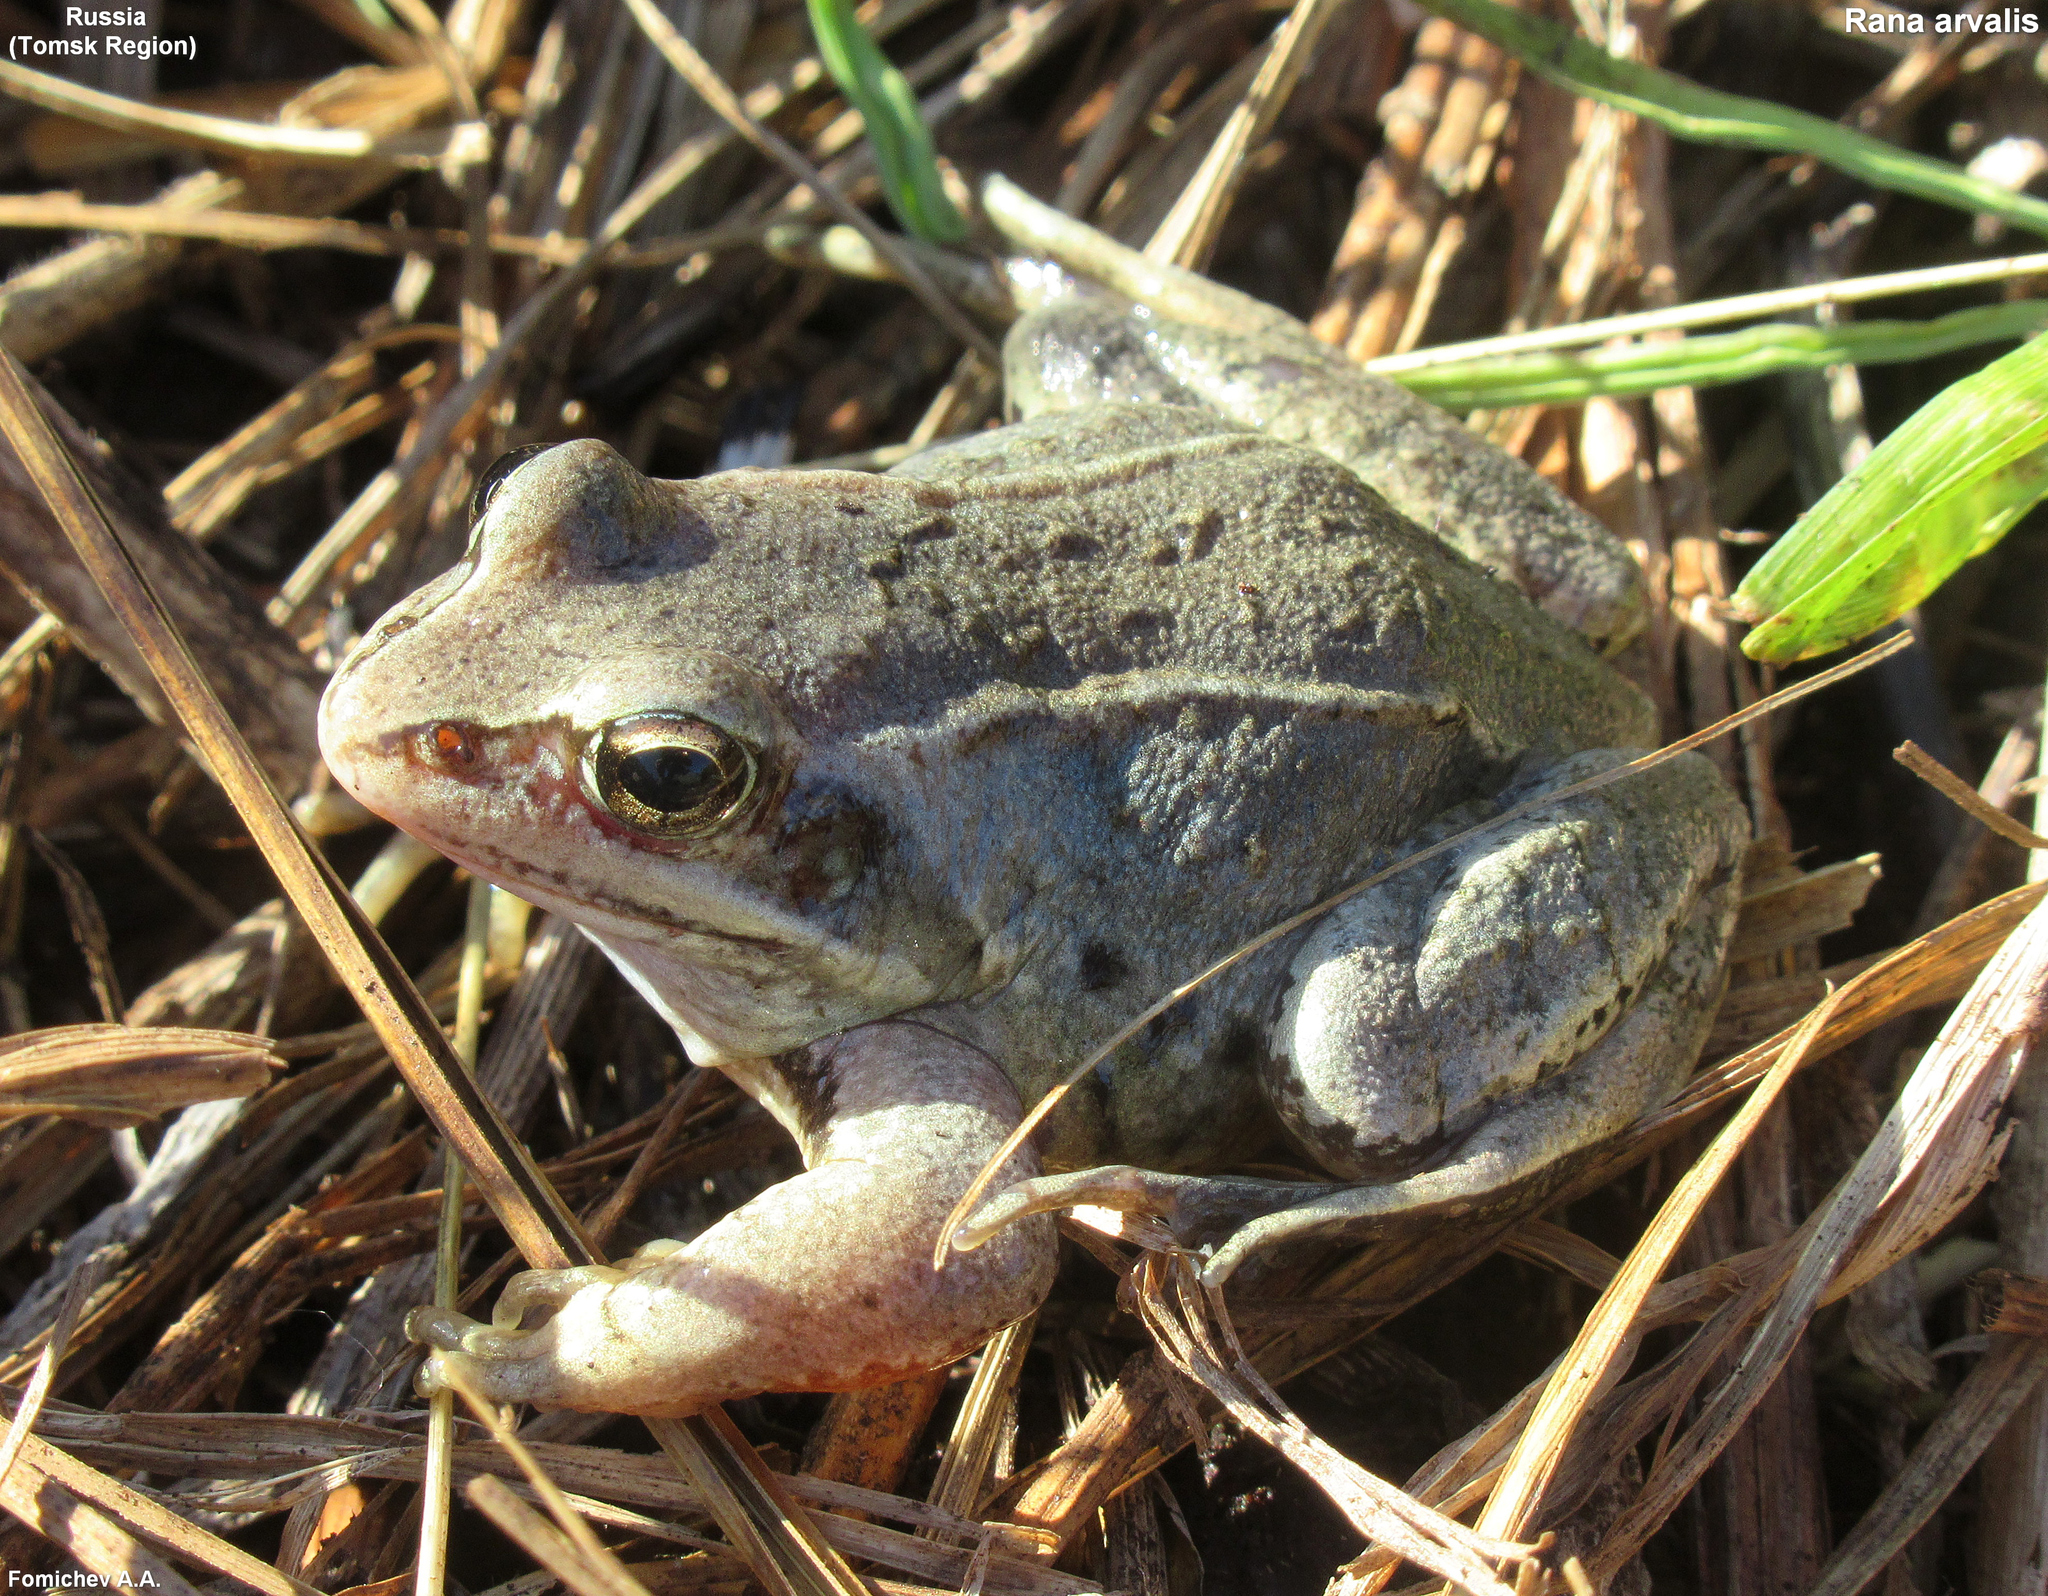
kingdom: Animalia
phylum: Chordata
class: Amphibia
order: Anura
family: Ranidae
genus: Rana
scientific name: Rana arvalis
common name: Moor frog
